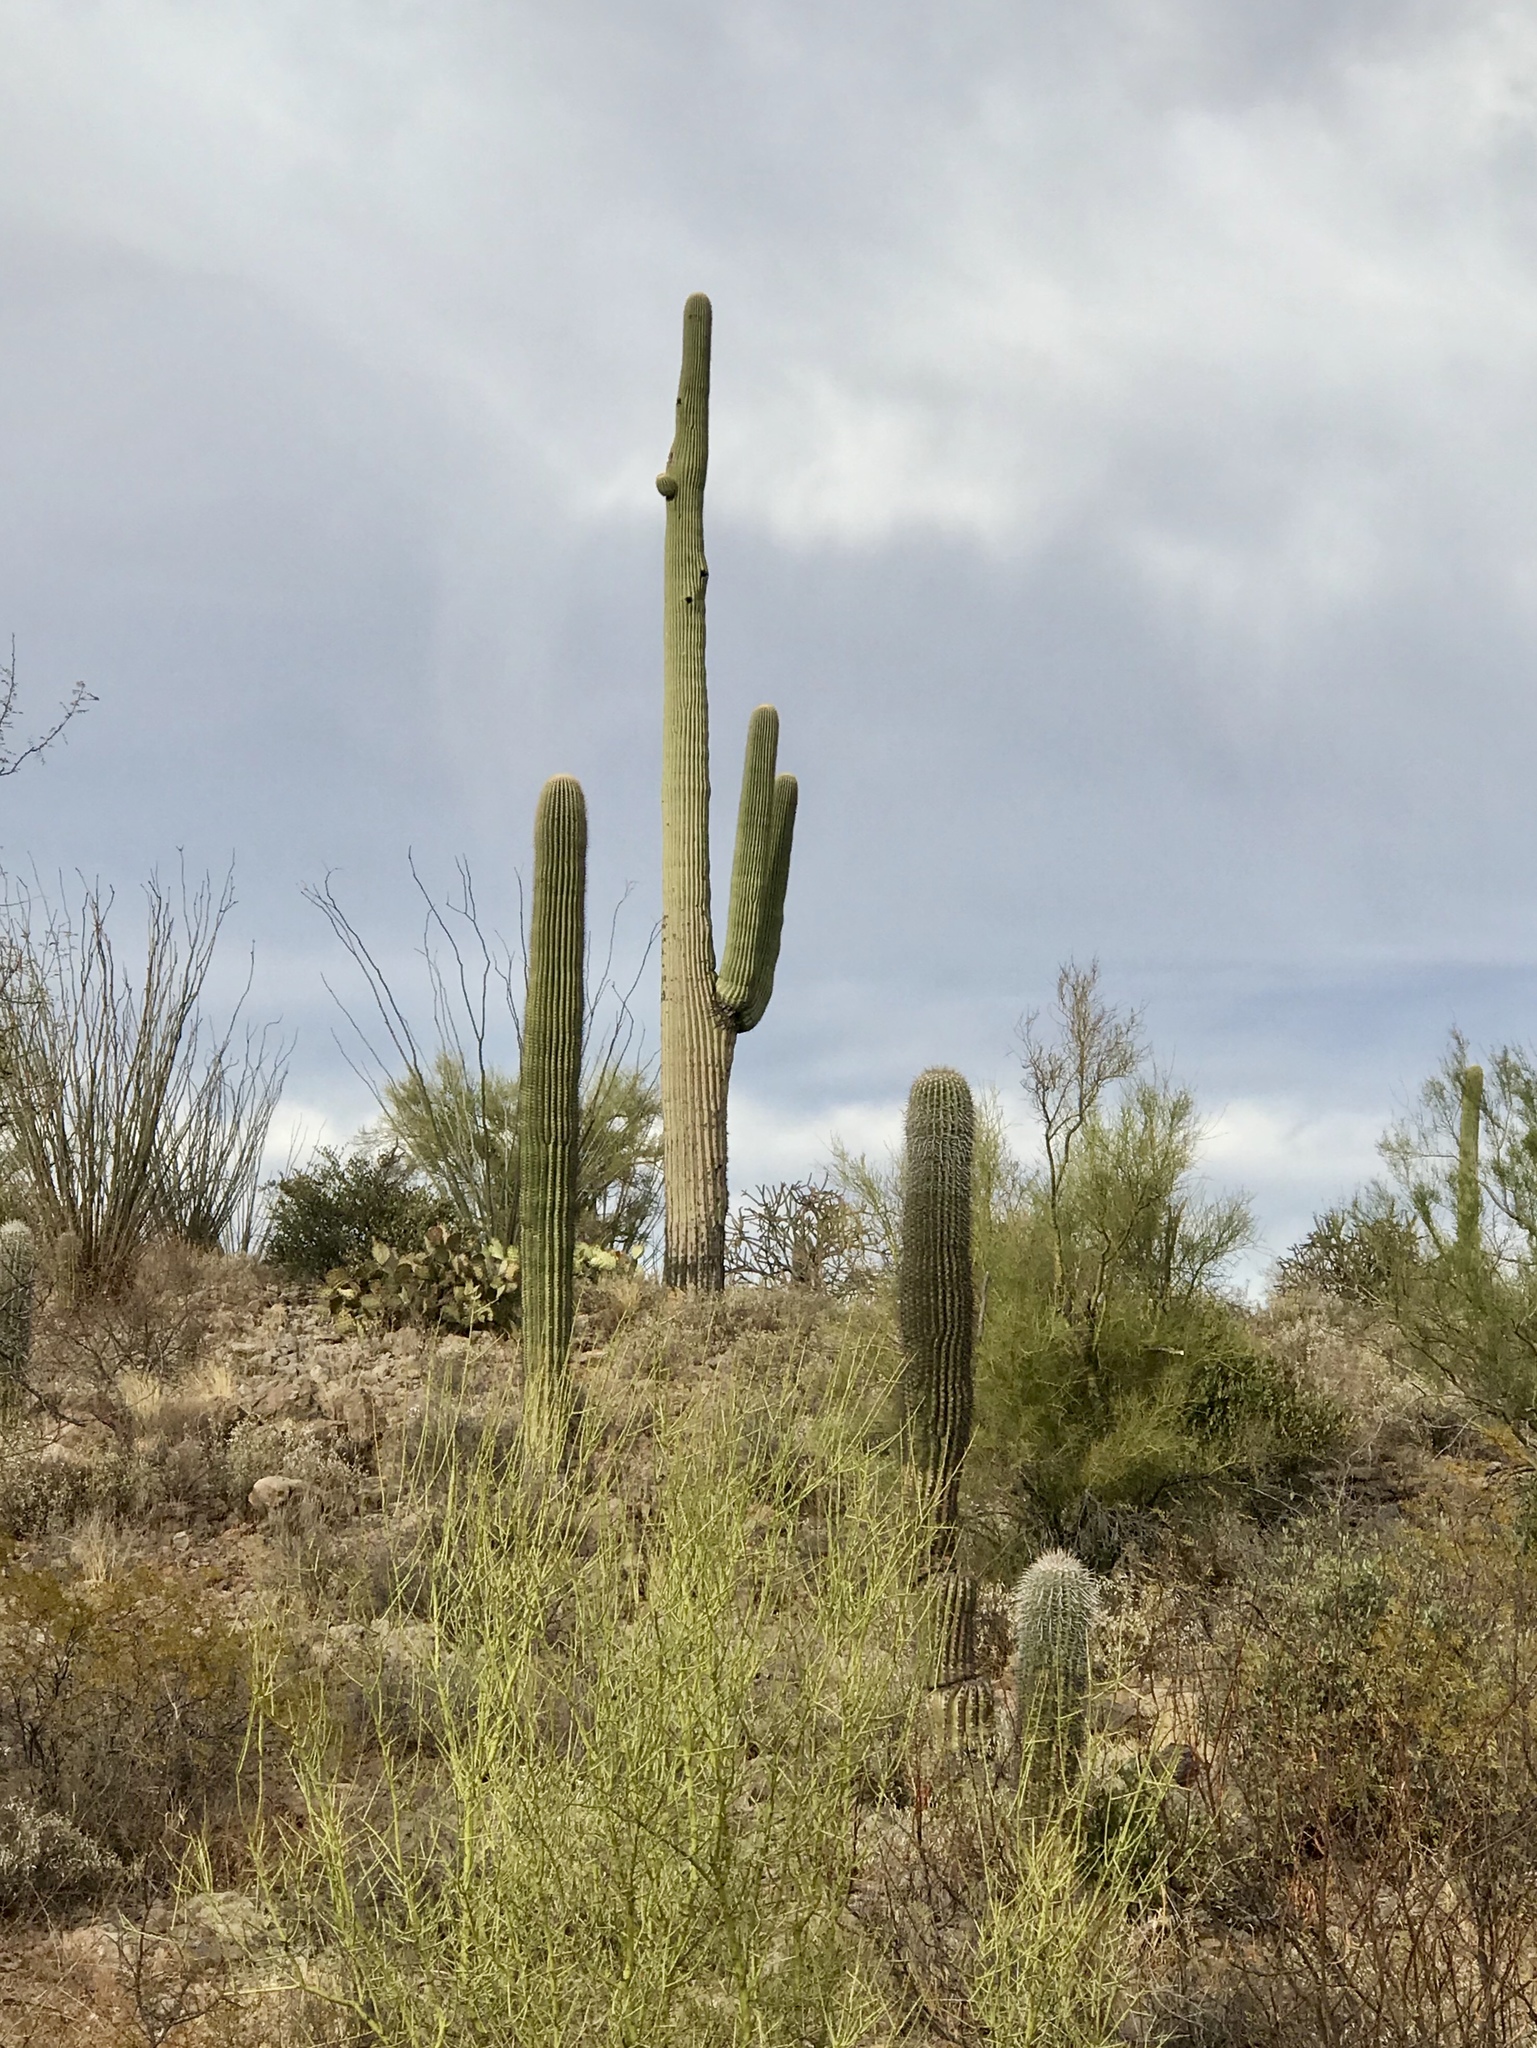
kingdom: Plantae
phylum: Tracheophyta
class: Magnoliopsida
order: Caryophyllales
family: Cactaceae
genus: Carnegiea
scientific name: Carnegiea gigantea
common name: Saguaro
